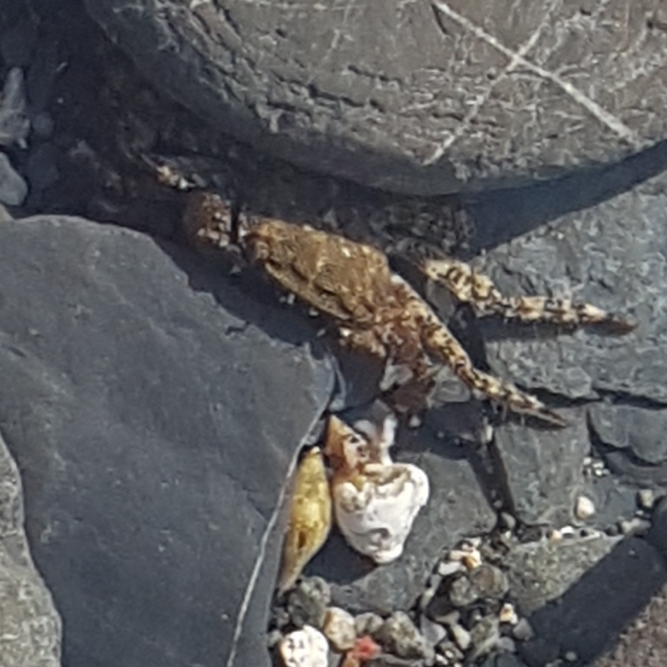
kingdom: Animalia
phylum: Arthropoda
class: Malacostraca
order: Decapoda
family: Grapsidae
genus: Pachygrapsus
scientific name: Pachygrapsus marmoratus
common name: Marbled rock crab
